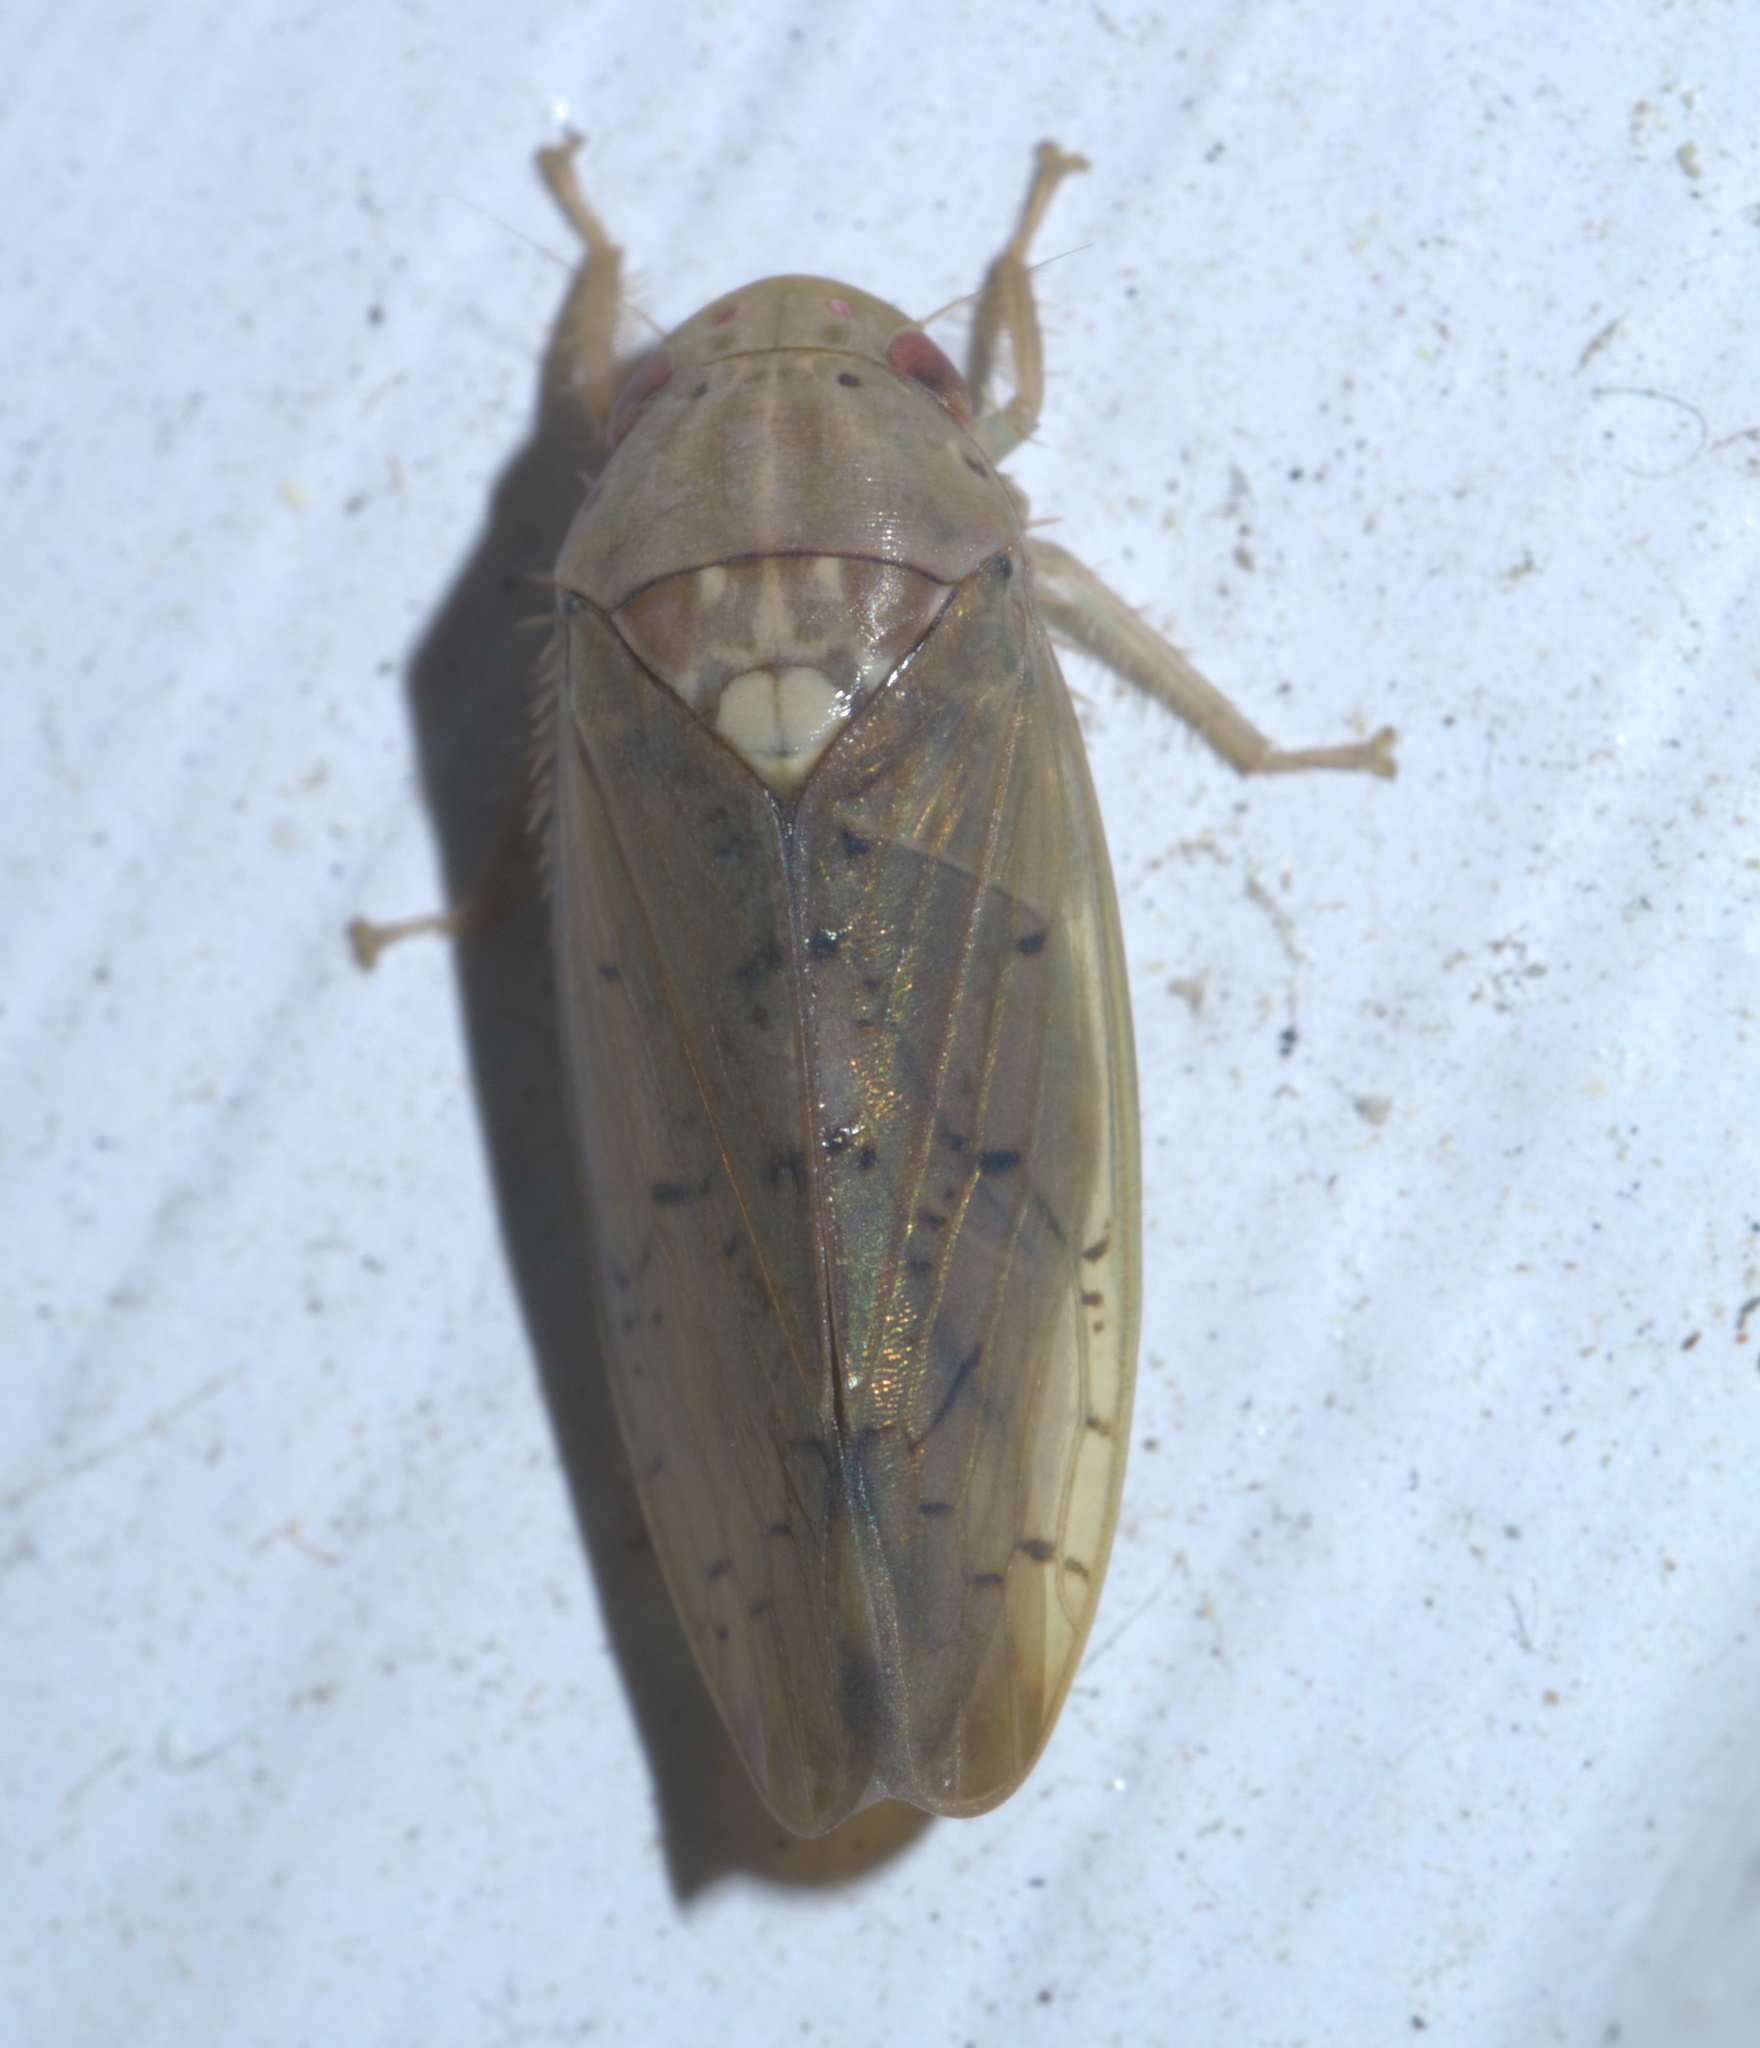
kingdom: Animalia
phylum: Arthropoda
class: Insecta
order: Hemiptera
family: Cicadellidae
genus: Ponana
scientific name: Ponana quadralaba
